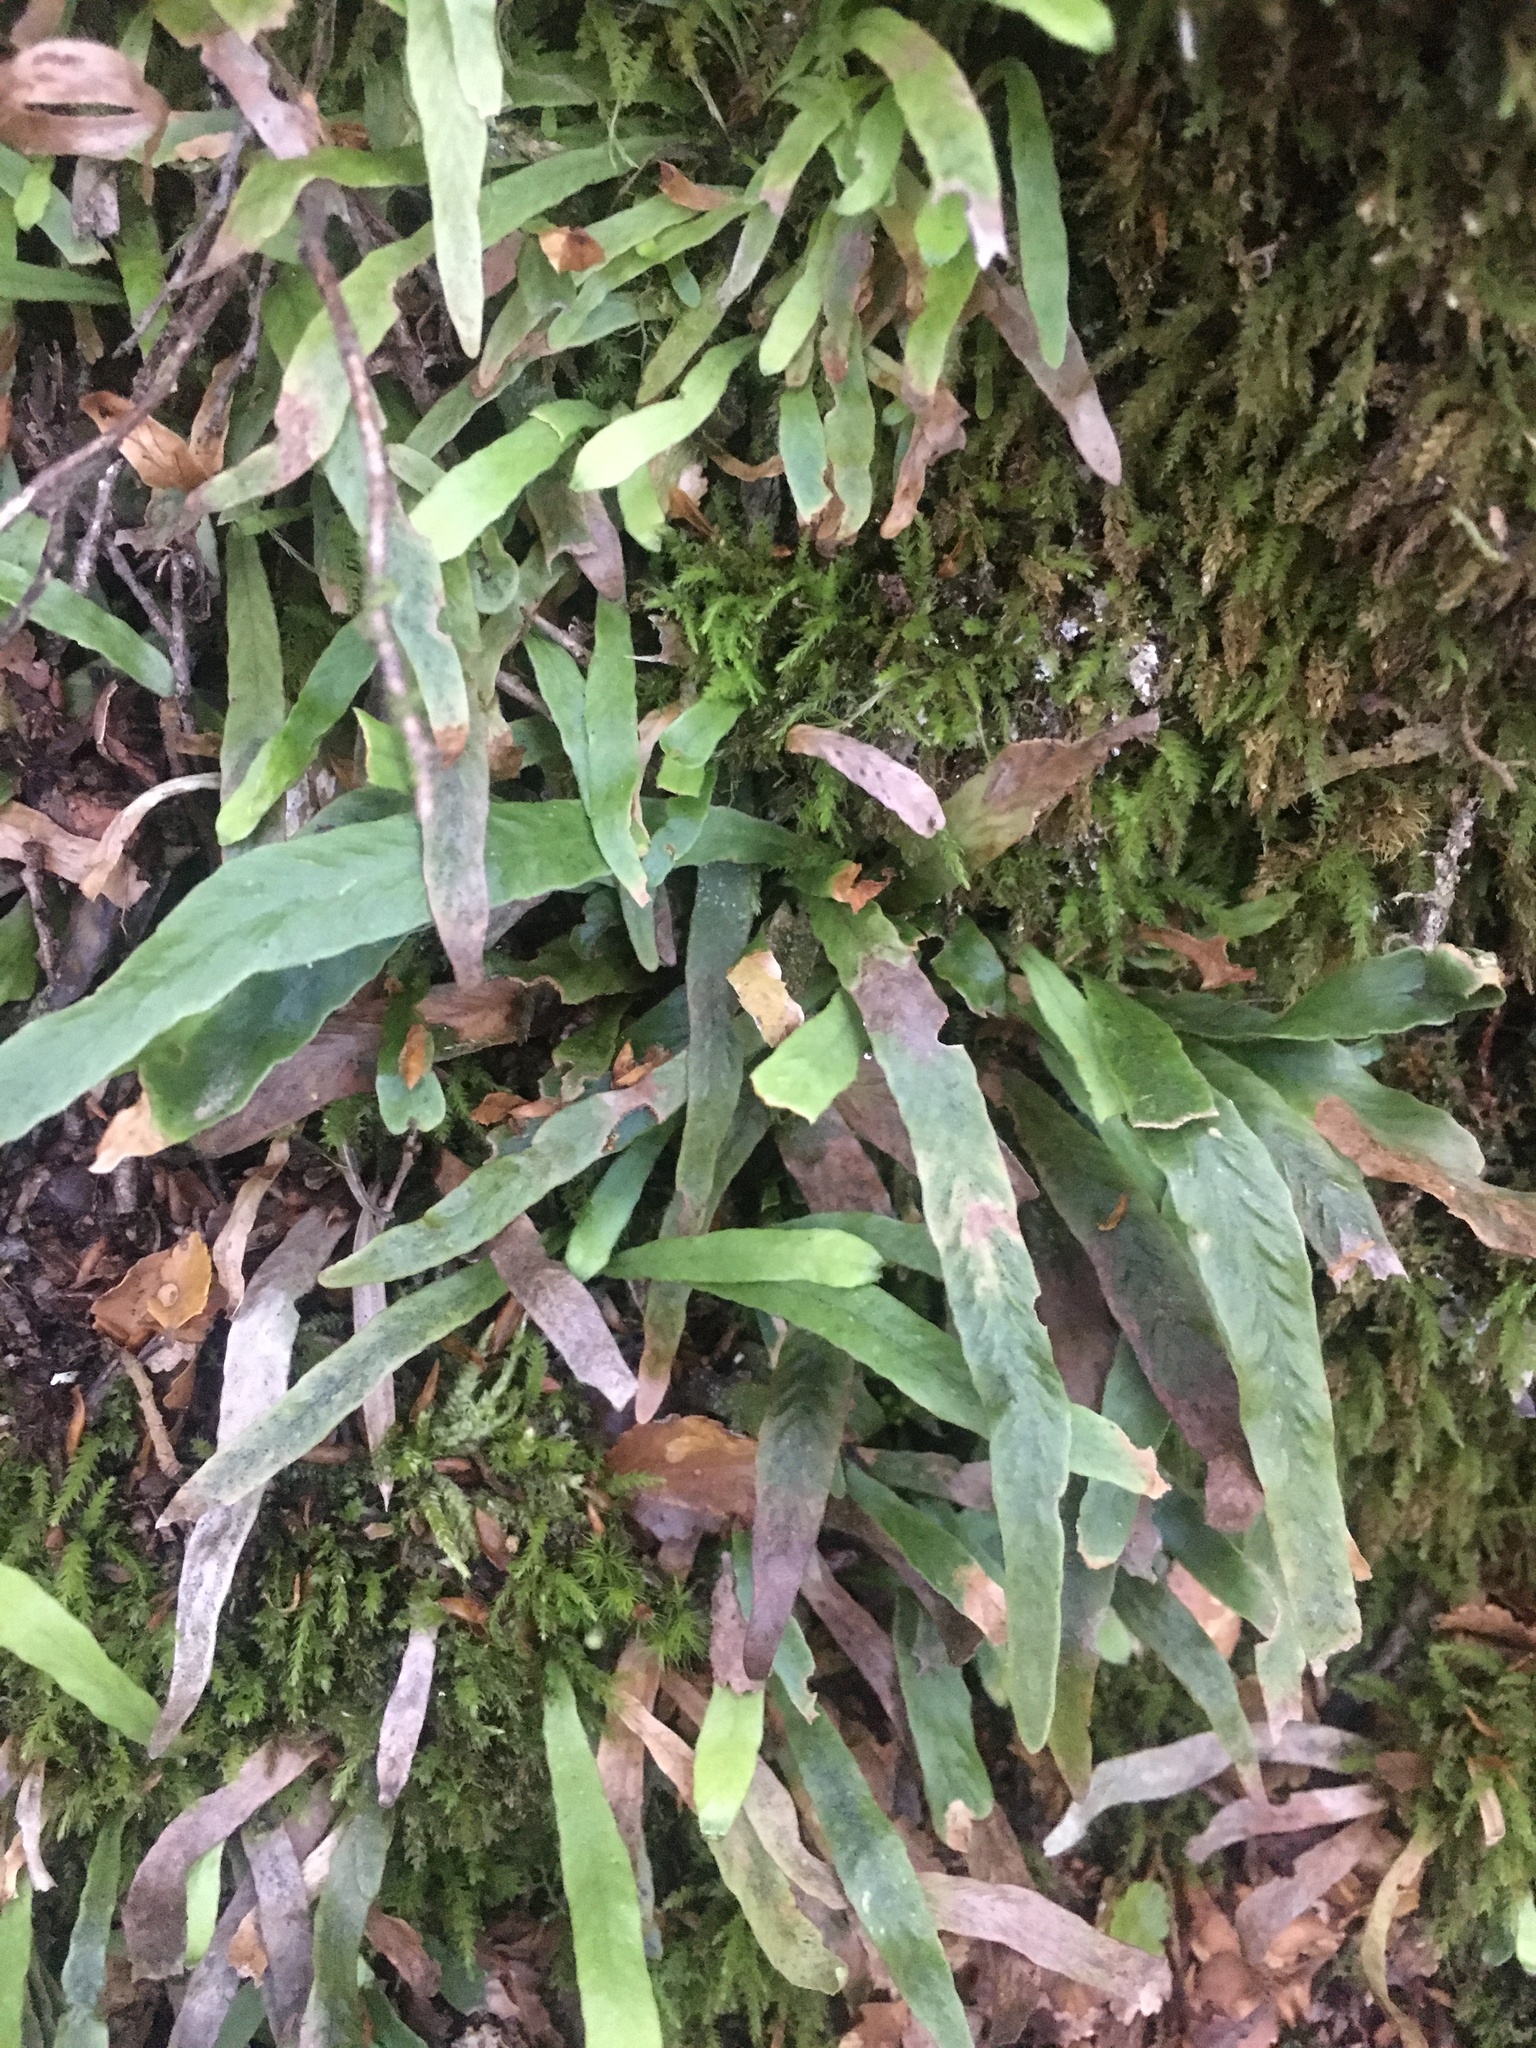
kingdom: Plantae
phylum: Tracheophyta
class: Polypodiopsida
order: Polypodiales
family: Polypodiaceae
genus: Notogrammitis
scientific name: Notogrammitis billardierei
